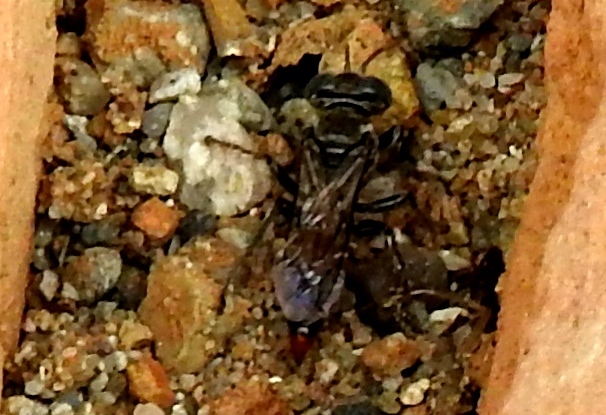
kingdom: Animalia
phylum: Arthropoda
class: Insecta
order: Hymenoptera
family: Crabronidae
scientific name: Crabronidae
